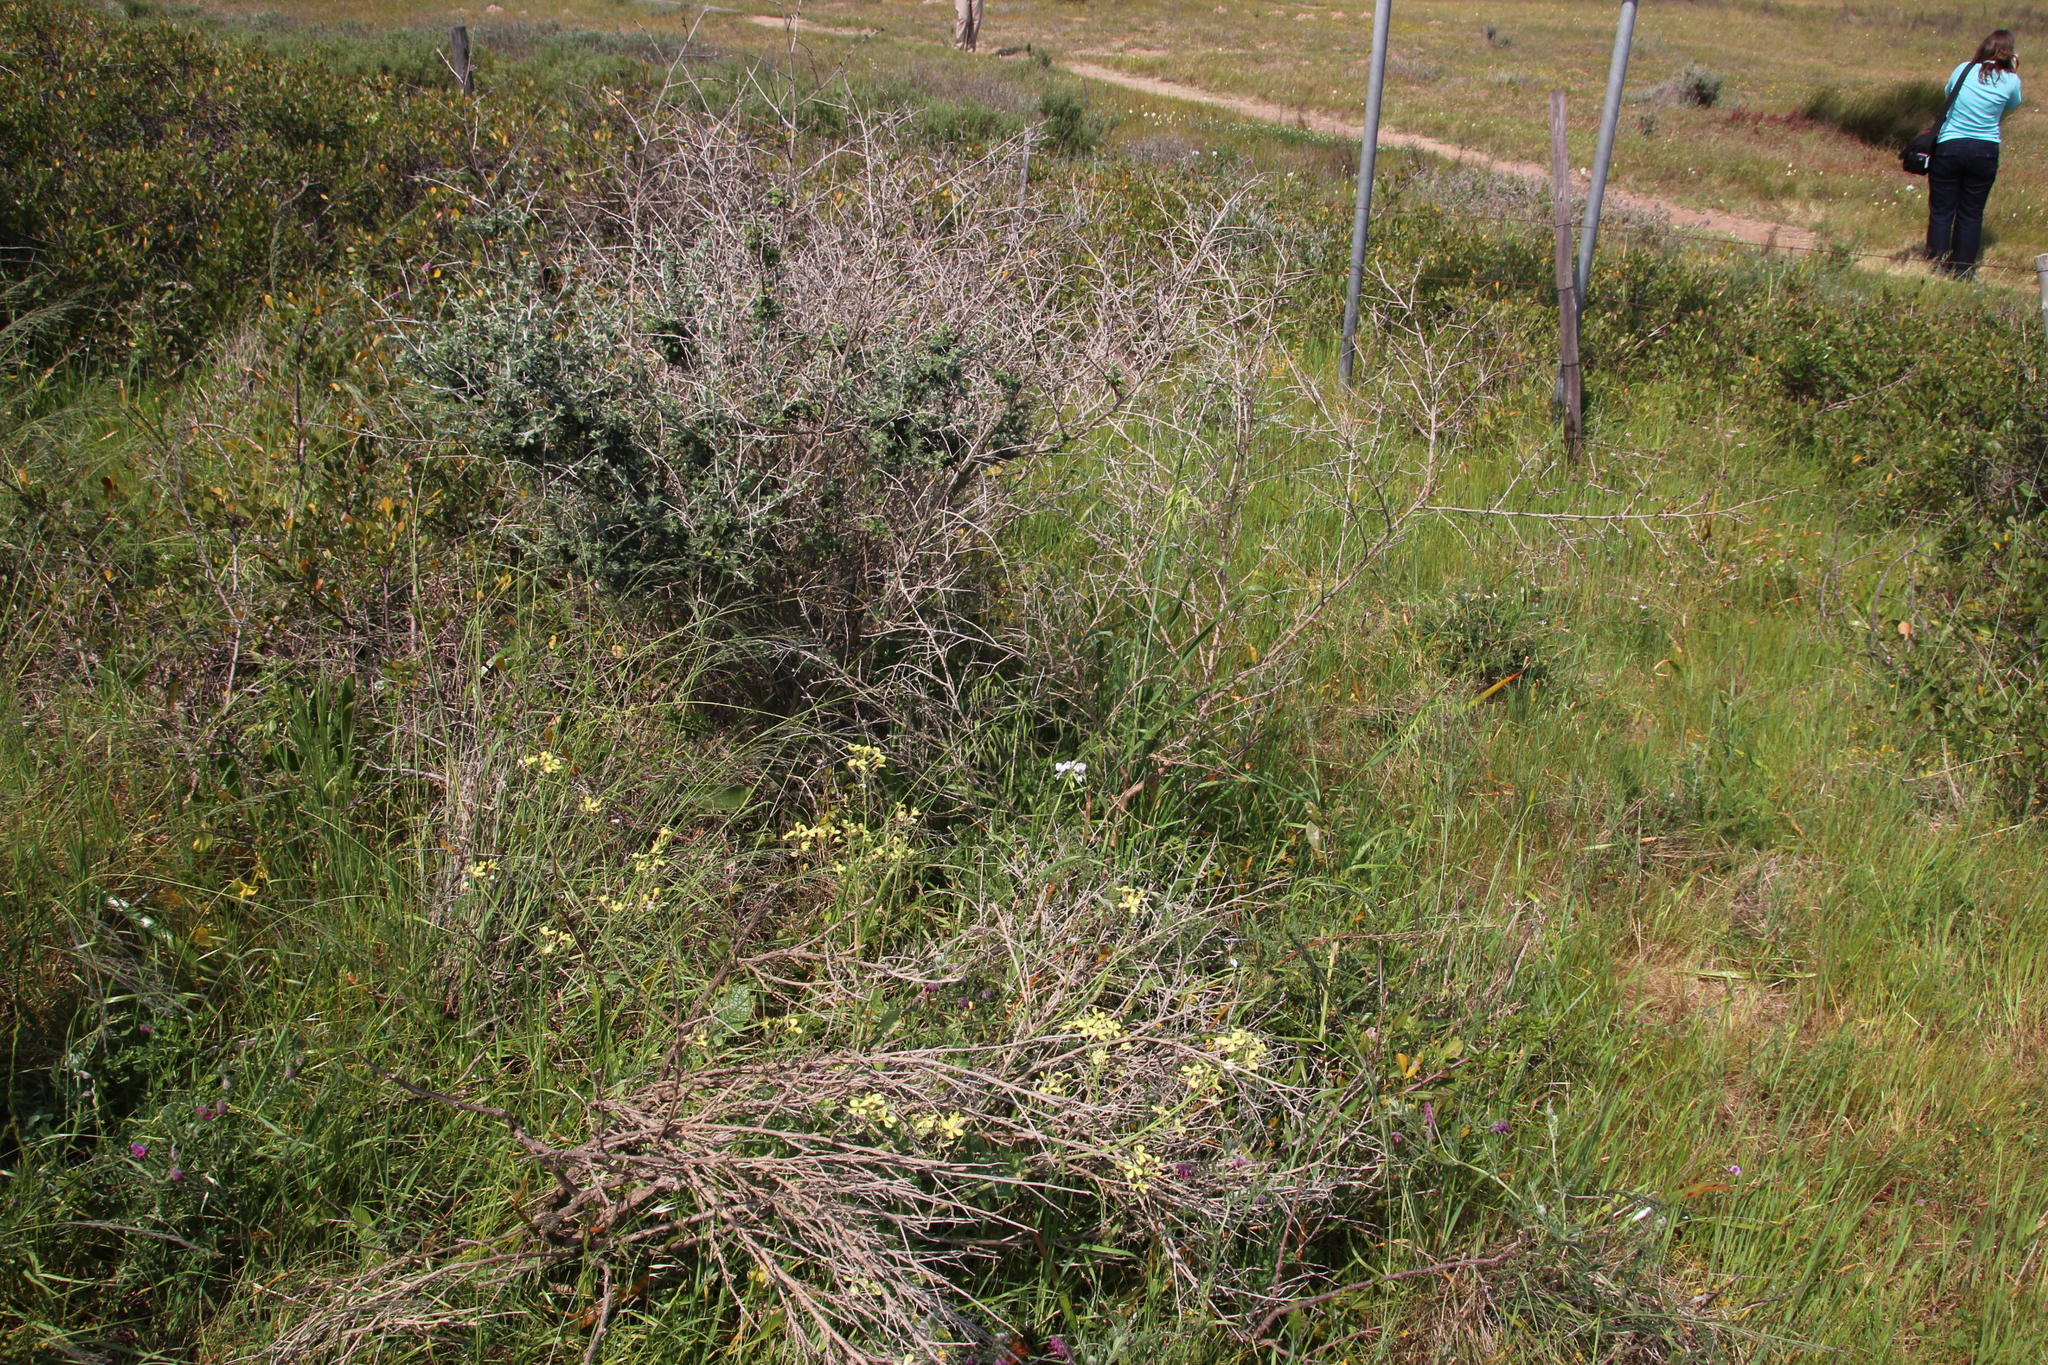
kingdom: Plantae
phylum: Tracheophyta
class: Magnoliopsida
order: Geraniales
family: Geraniaceae
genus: Pelargonium
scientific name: Pelargonium myrrhifolium
